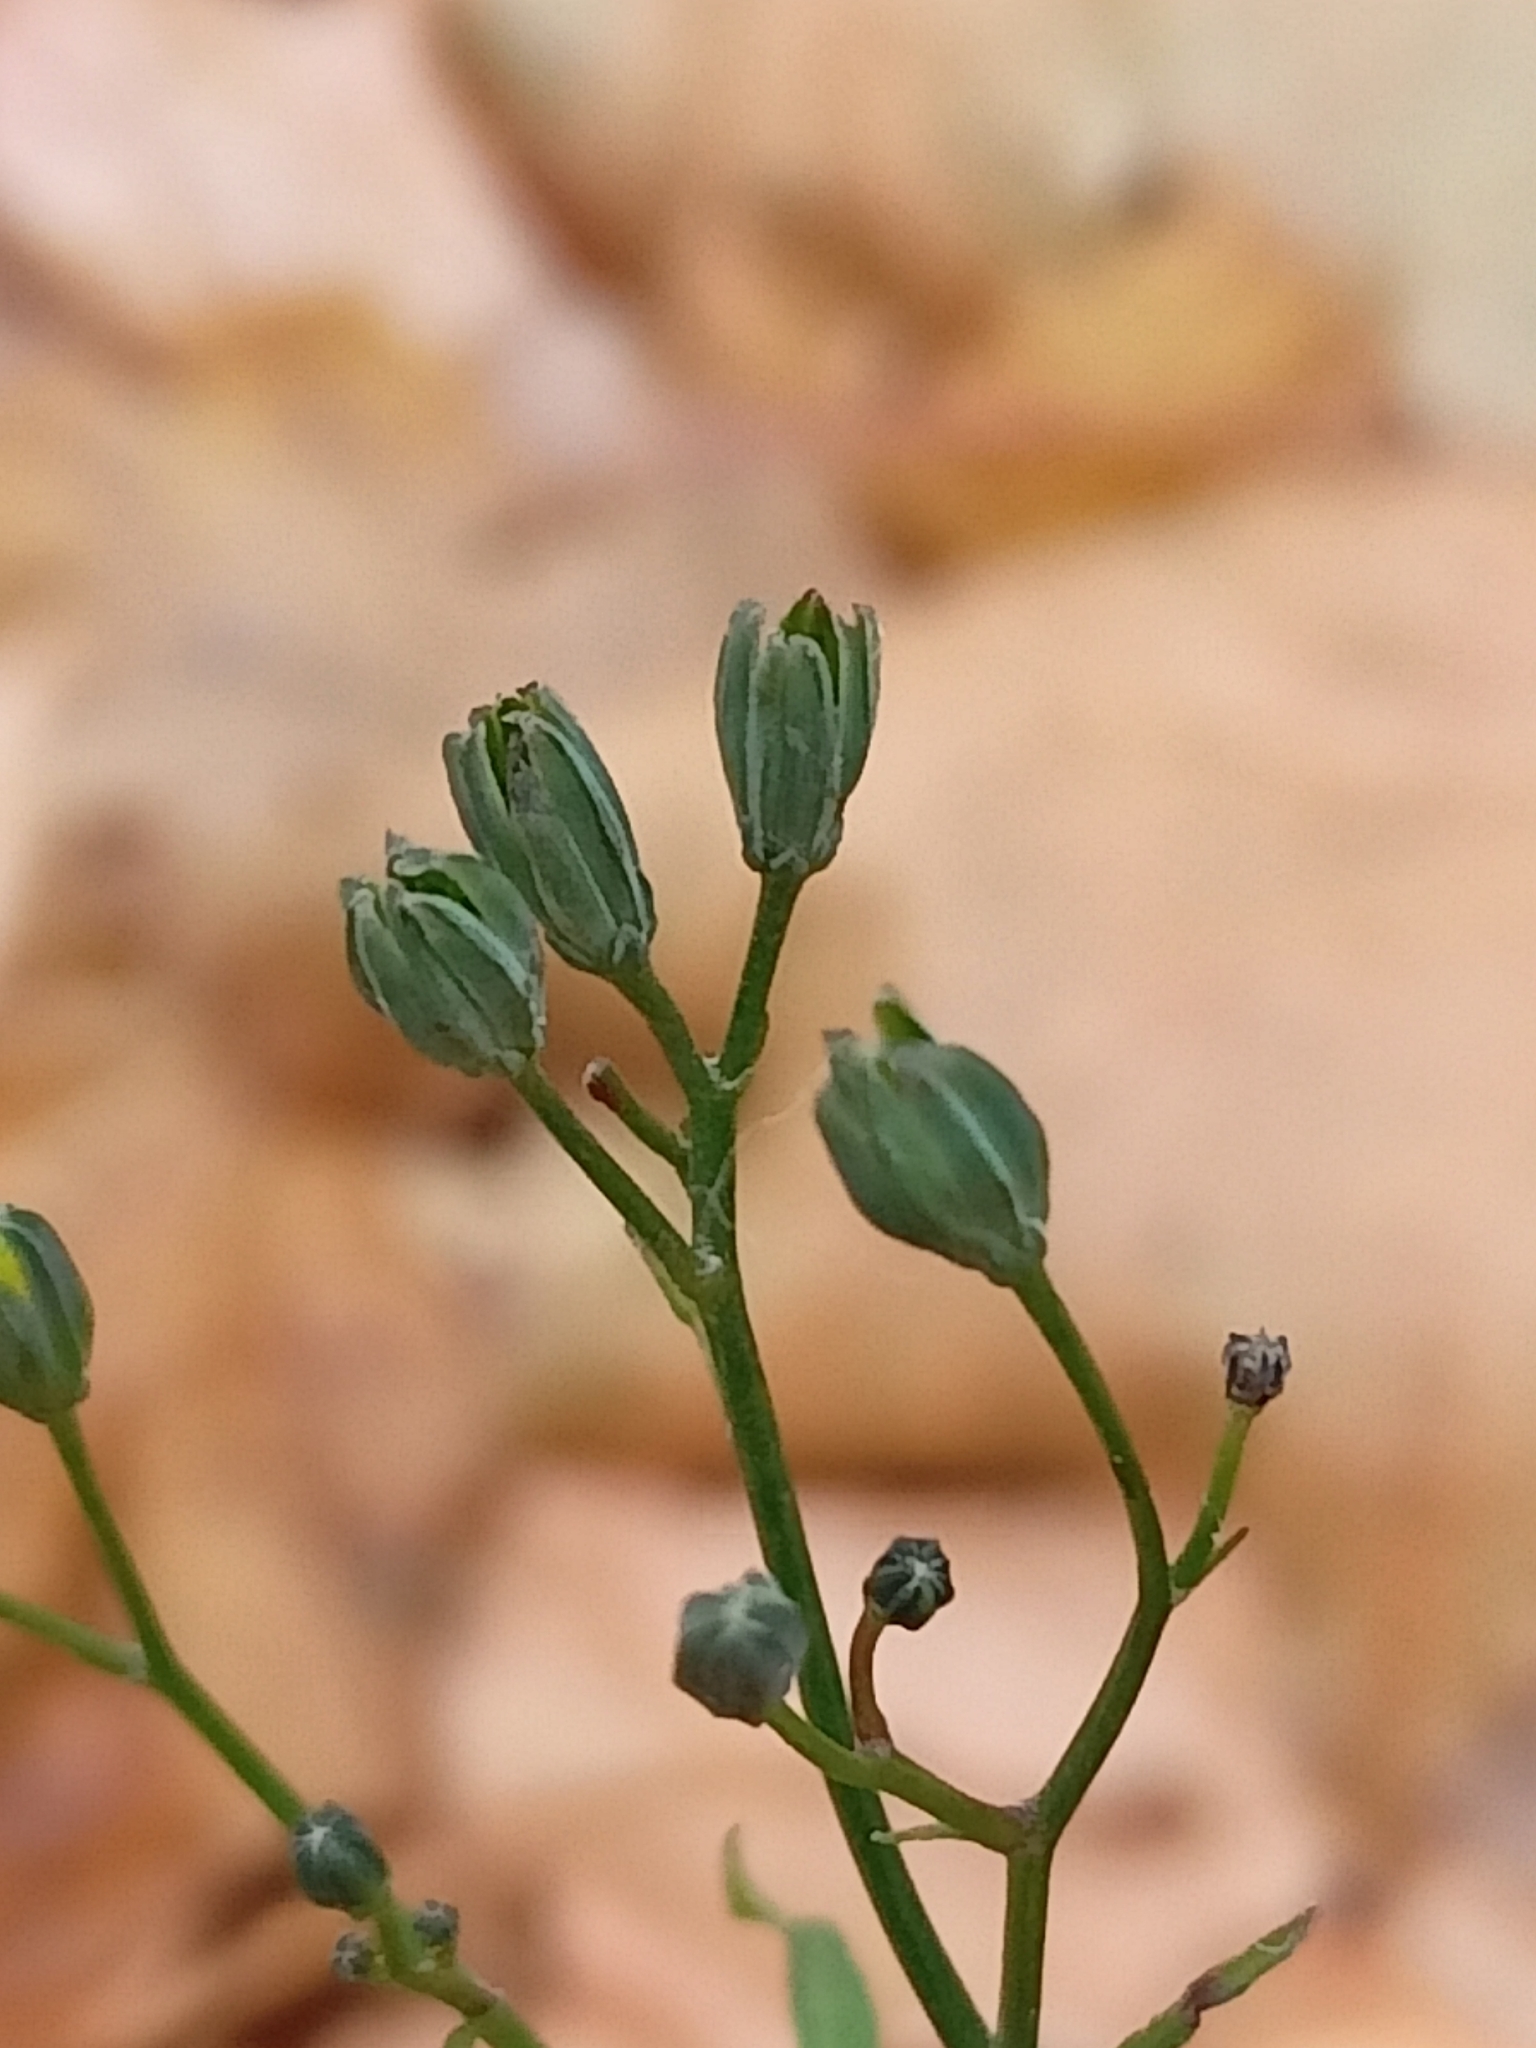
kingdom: Plantae
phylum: Tracheophyta
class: Magnoliopsida
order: Asterales
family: Asteraceae
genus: Lapsana
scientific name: Lapsana communis
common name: Nipplewort
